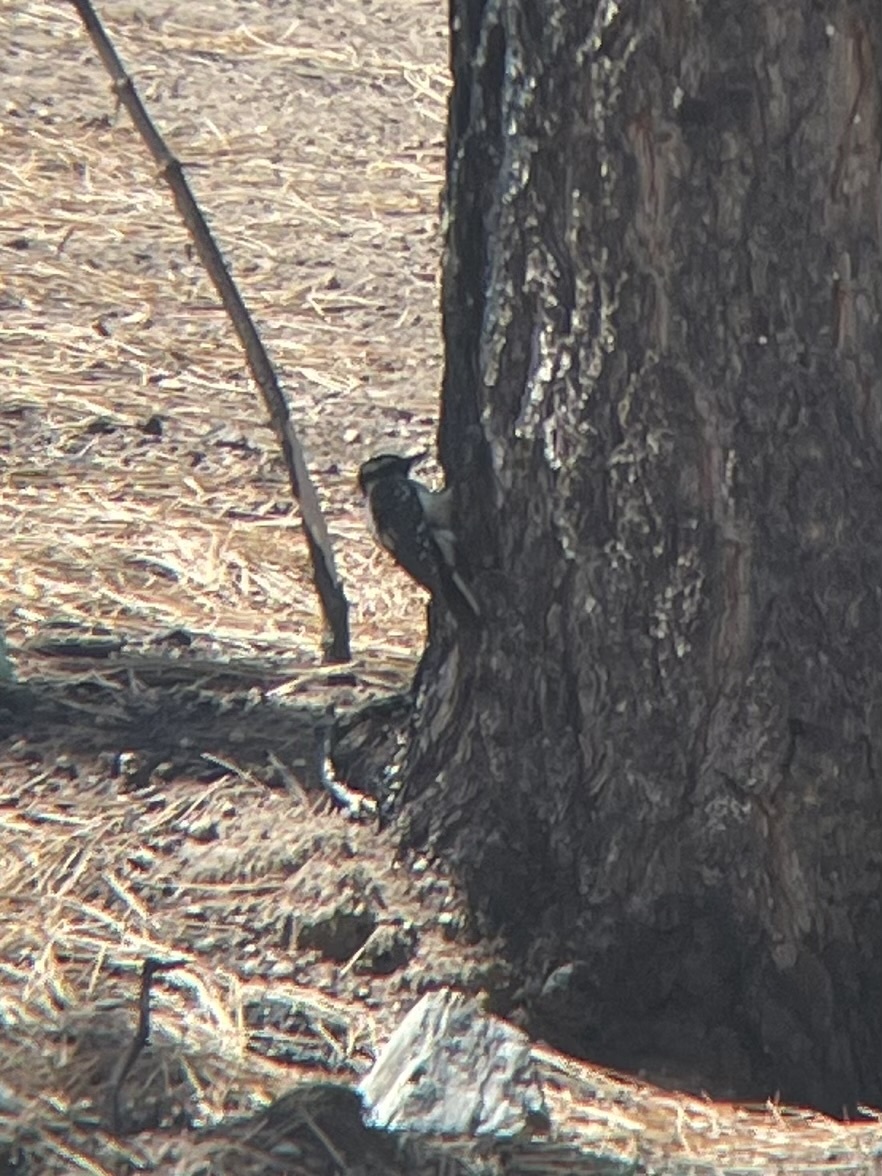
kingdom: Animalia
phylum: Chordata
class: Aves
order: Piciformes
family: Picidae
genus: Leuconotopicus
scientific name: Leuconotopicus villosus
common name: Hairy woodpecker
